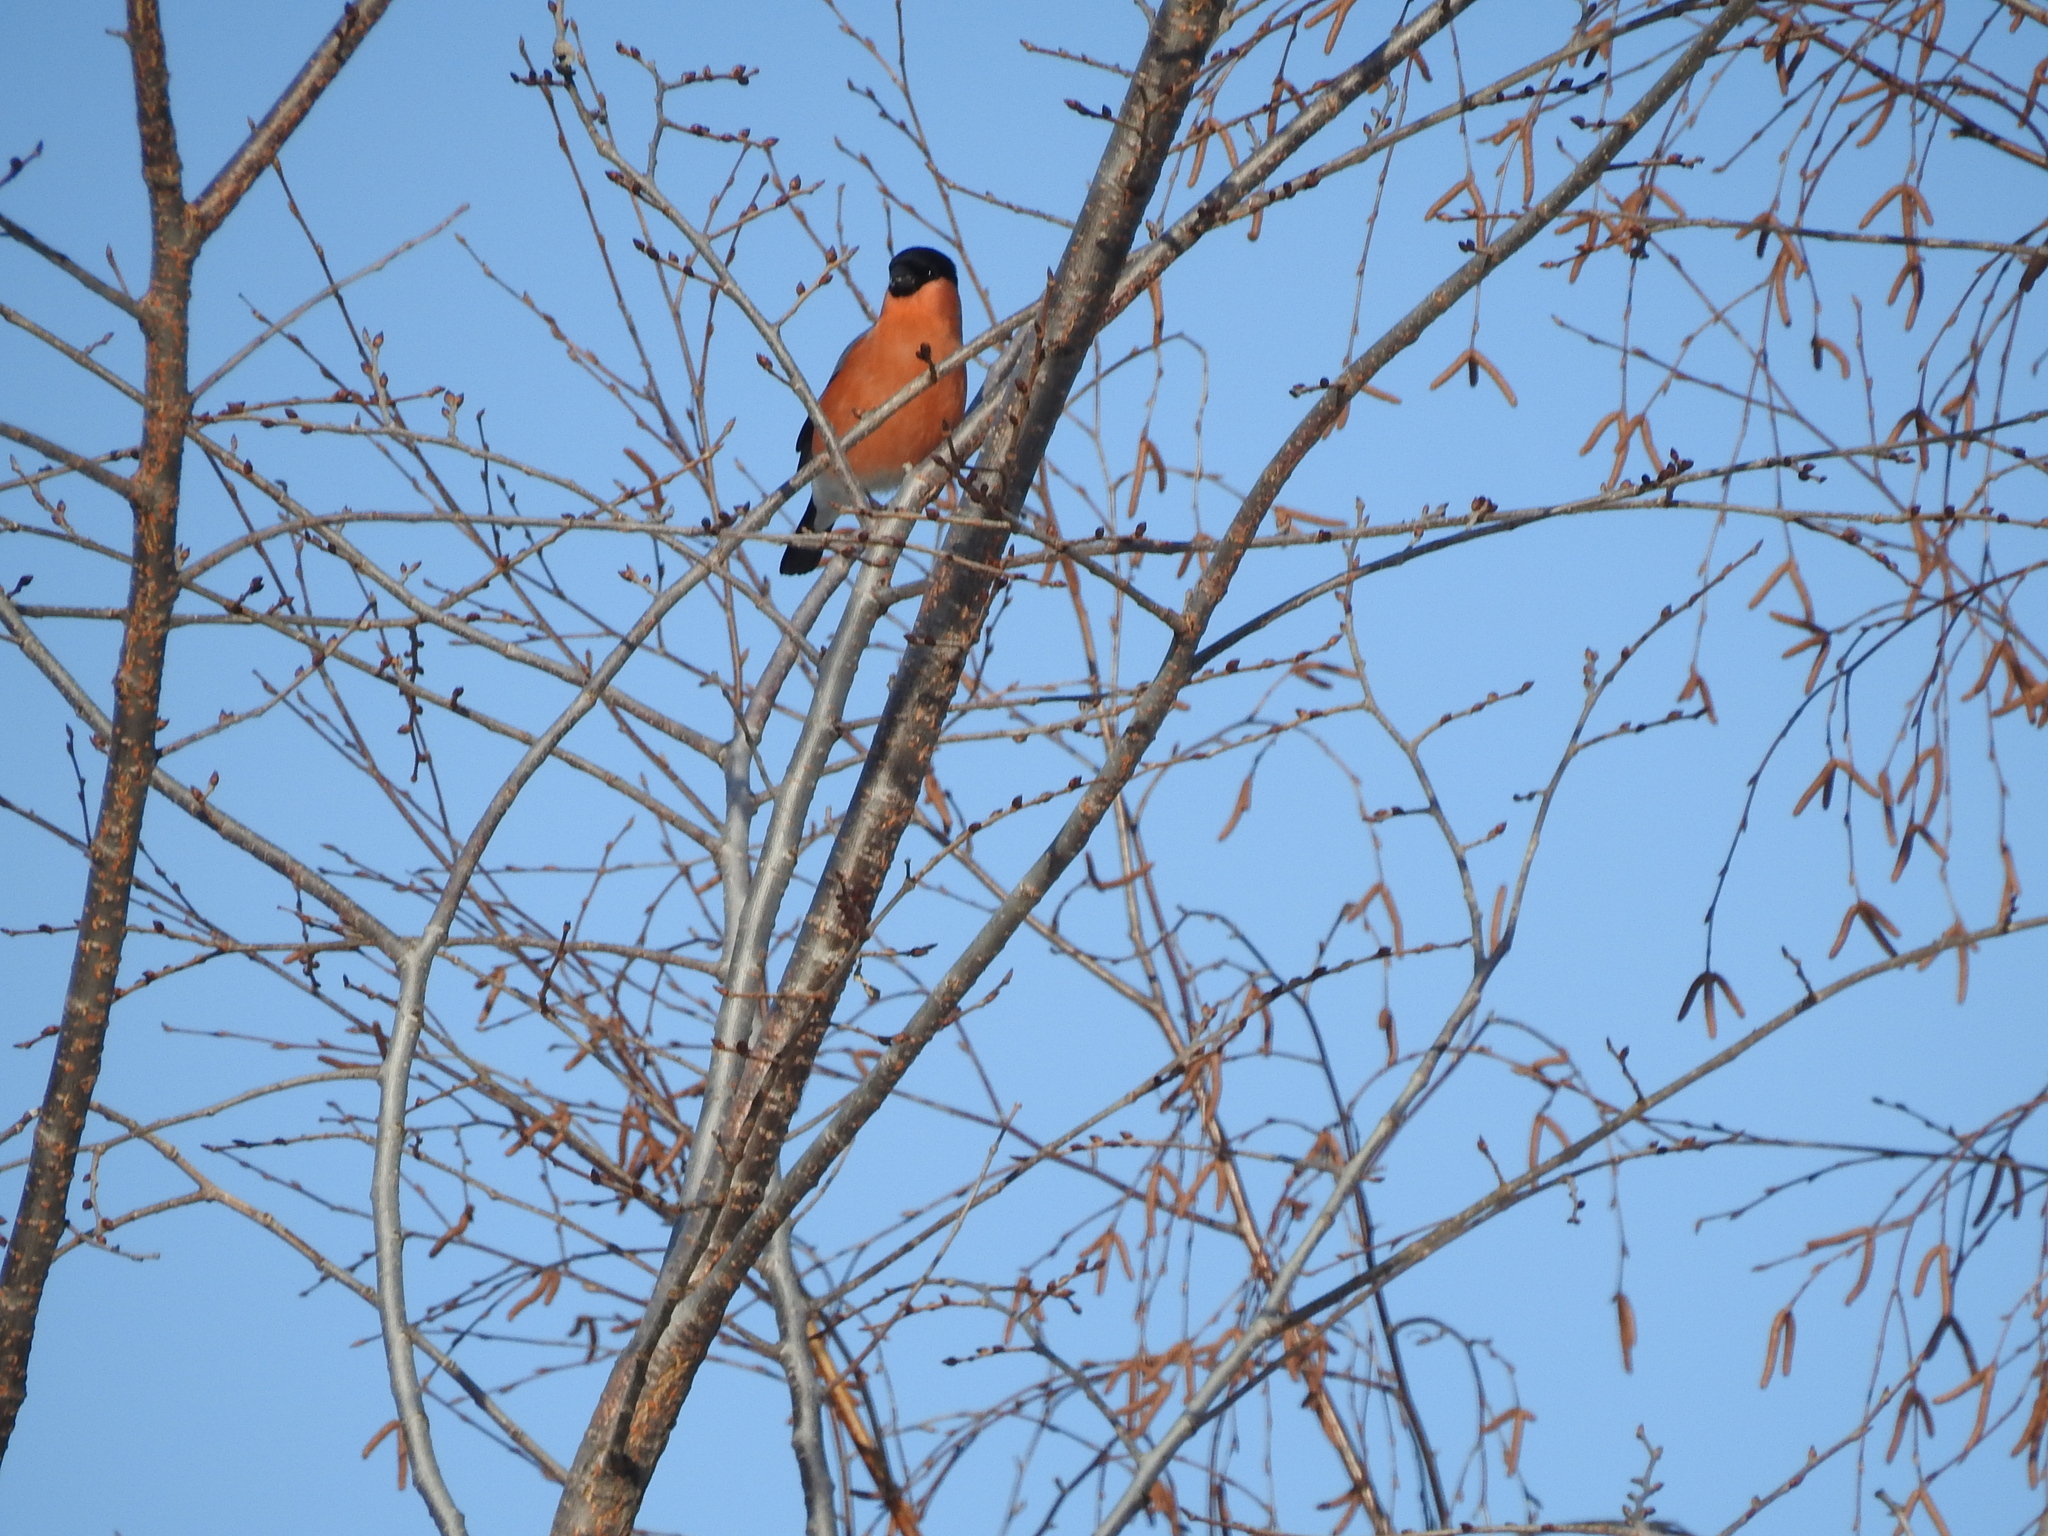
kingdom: Animalia
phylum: Chordata
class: Aves
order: Passeriformes
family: Fringillidae
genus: Pyrrhula
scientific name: Pyrrhula pyrrhula
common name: Eurasian bullfinch
